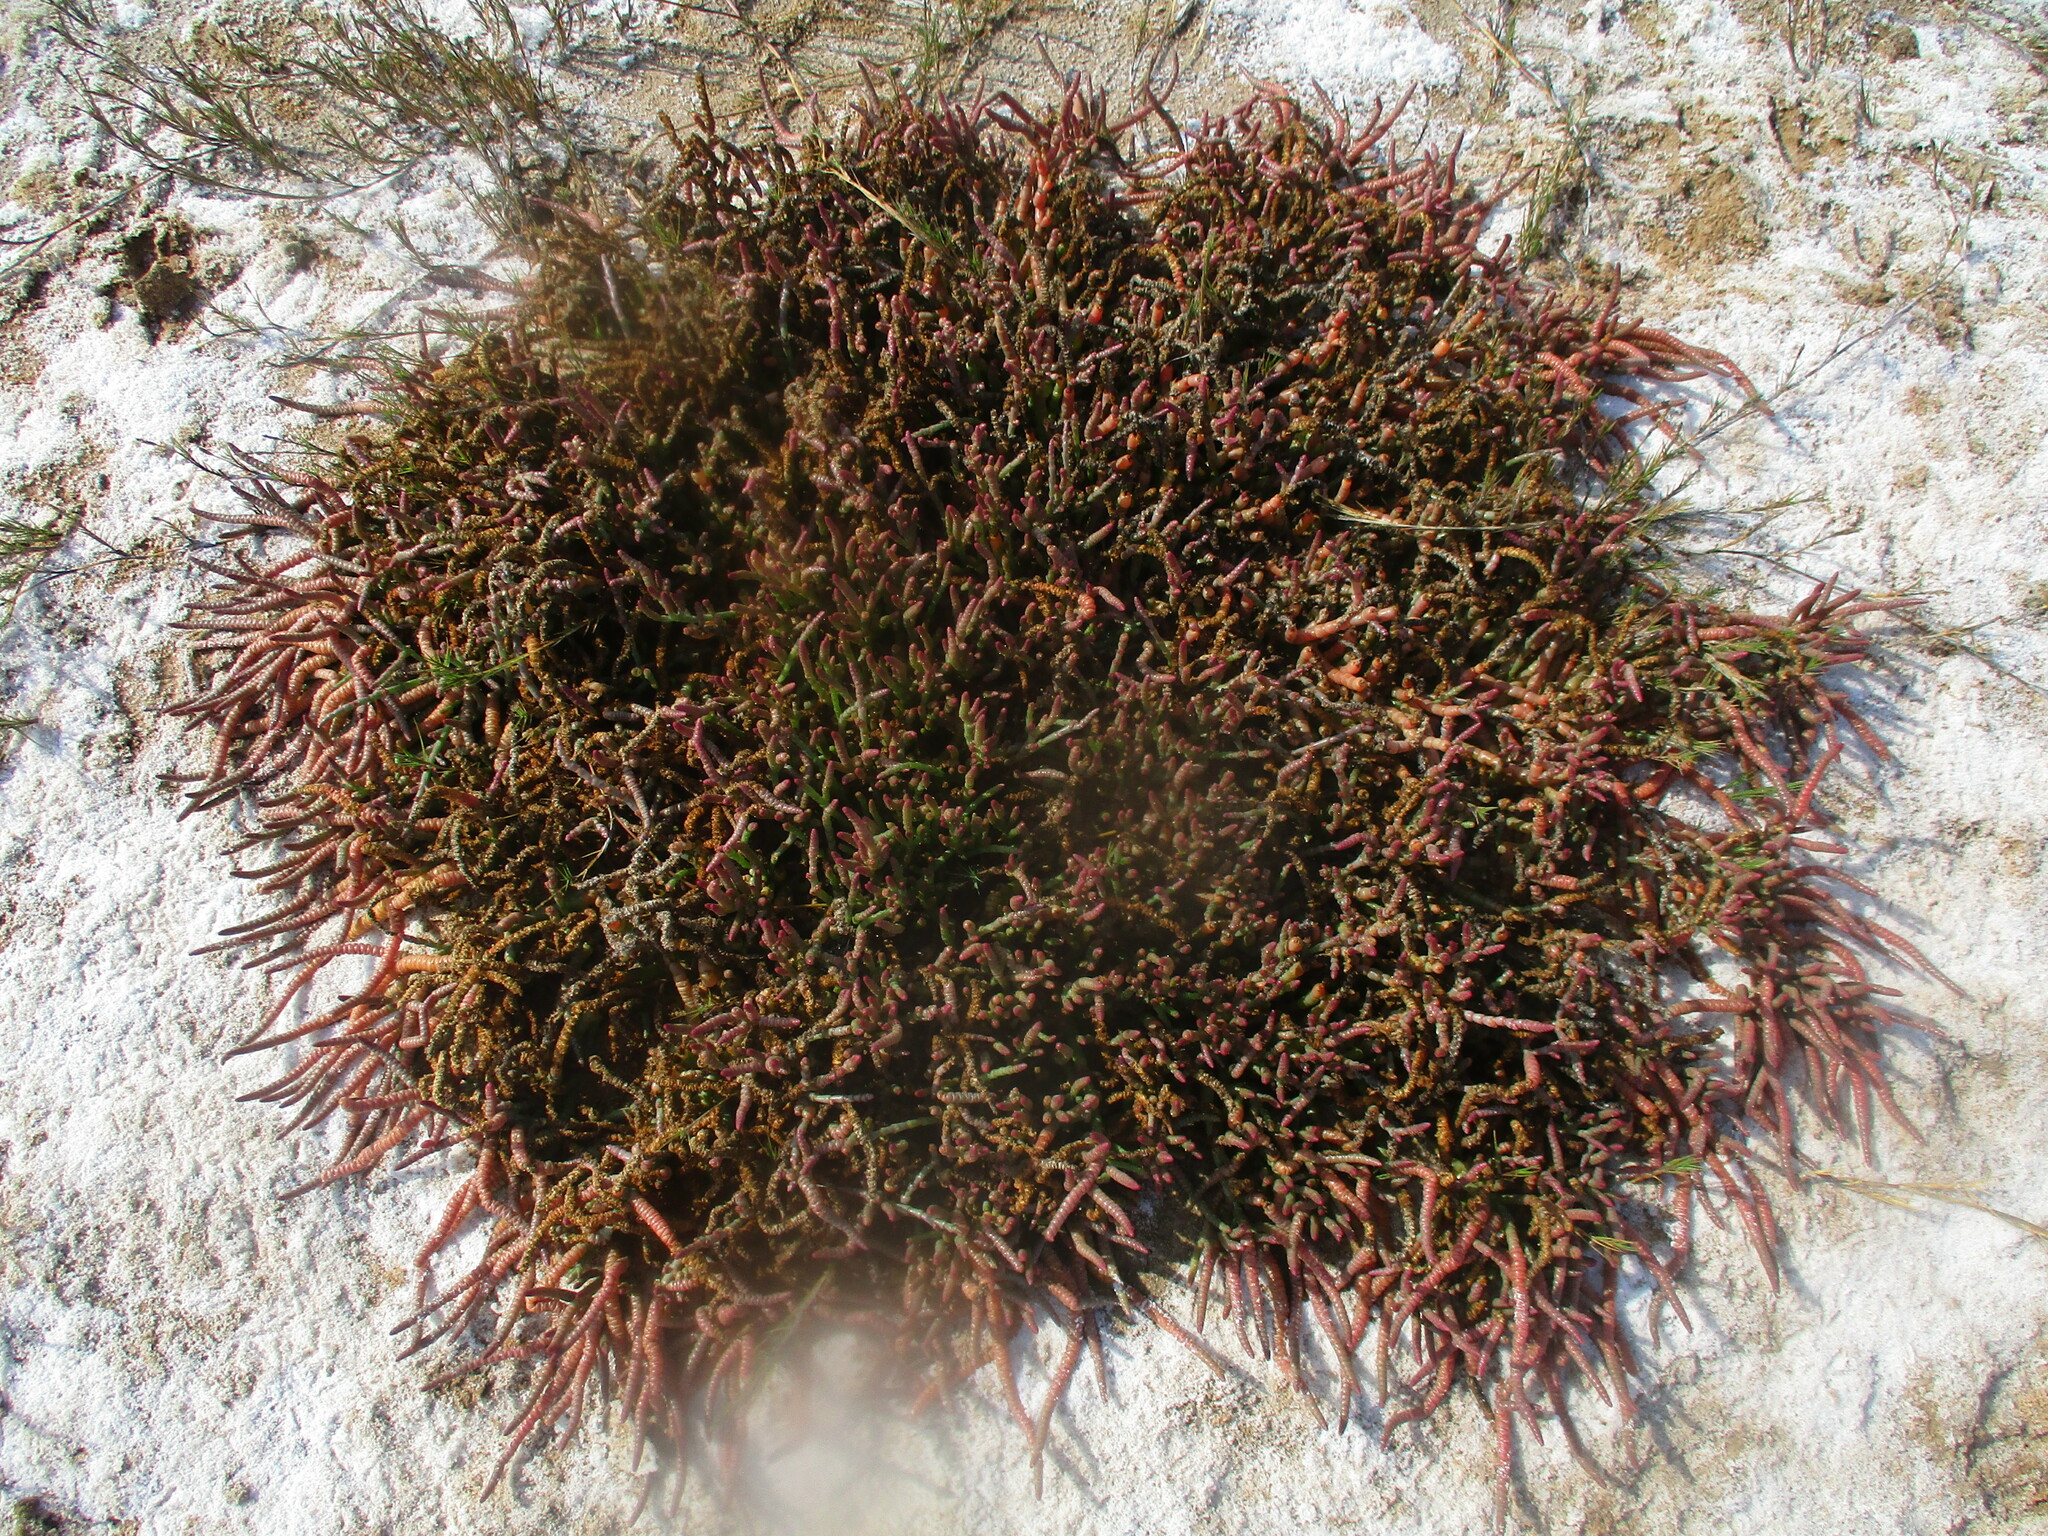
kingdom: Plantae
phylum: Tracheophyta
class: Magnoliopsida
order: Caryophyllales
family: Amaranthaceae
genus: Salicornia
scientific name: Salicornia natalensis
